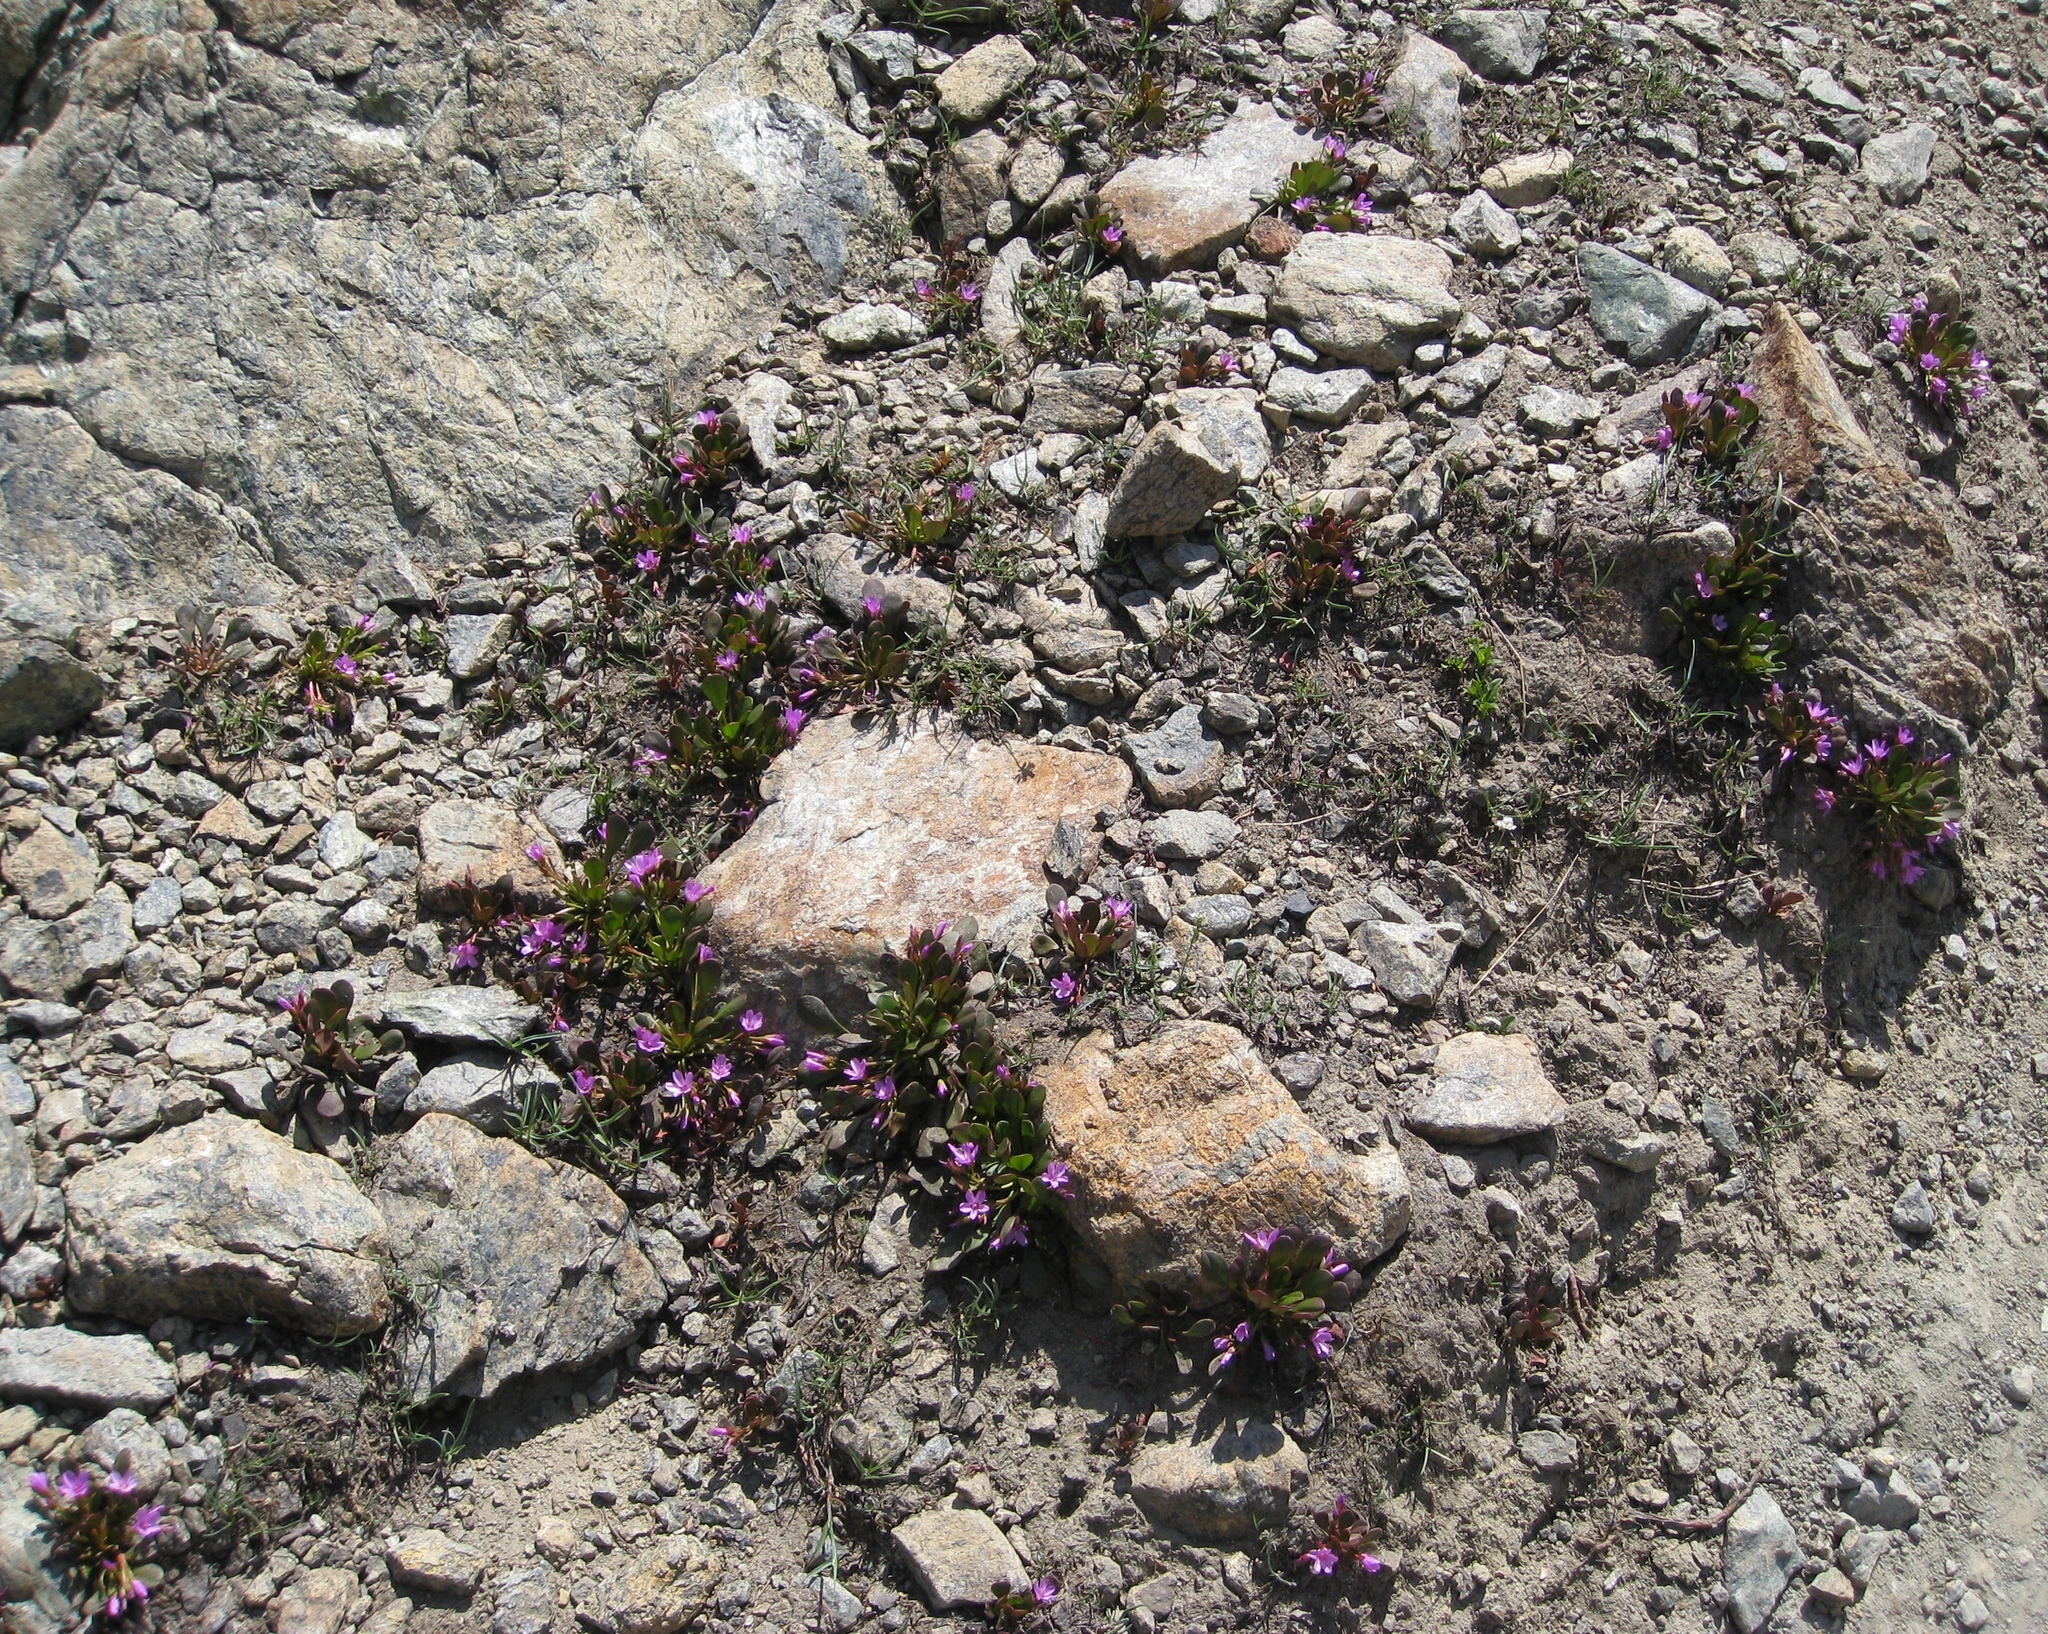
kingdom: Plantae
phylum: Tracheophyta
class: Magnoliopsida
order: Caryophyllales
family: Montiaceae
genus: Claytonia
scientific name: Claytonia megarhiza
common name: Alpine spring beauty
